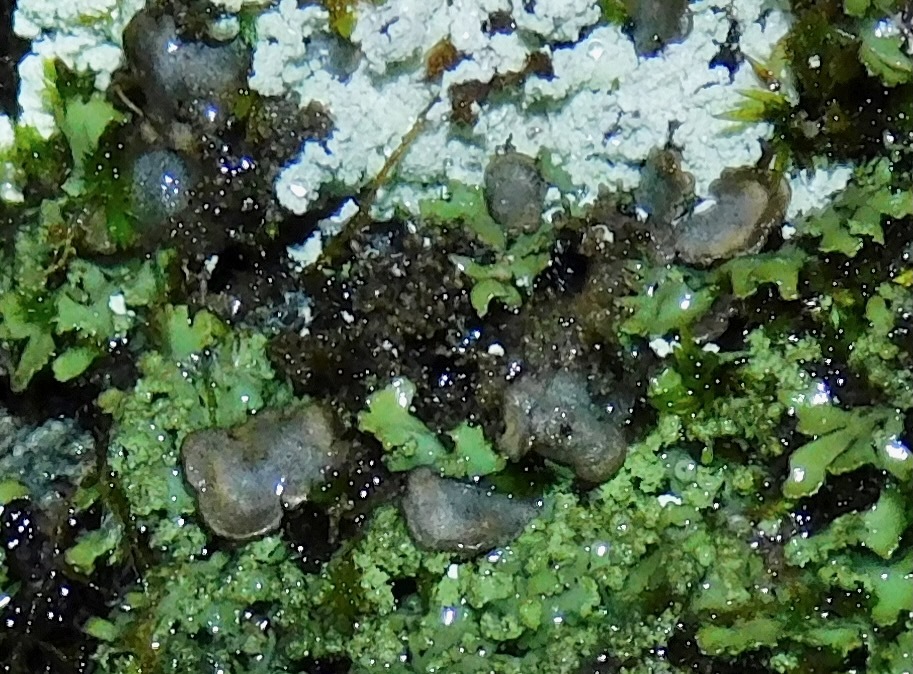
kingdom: Fungi
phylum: Ascomycota
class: Lecanoromycetes
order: Peltigerales
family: Coccocarpiaceae
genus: Coccocarpia
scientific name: Coccocarpia palmicola
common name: Salted shell lichen
